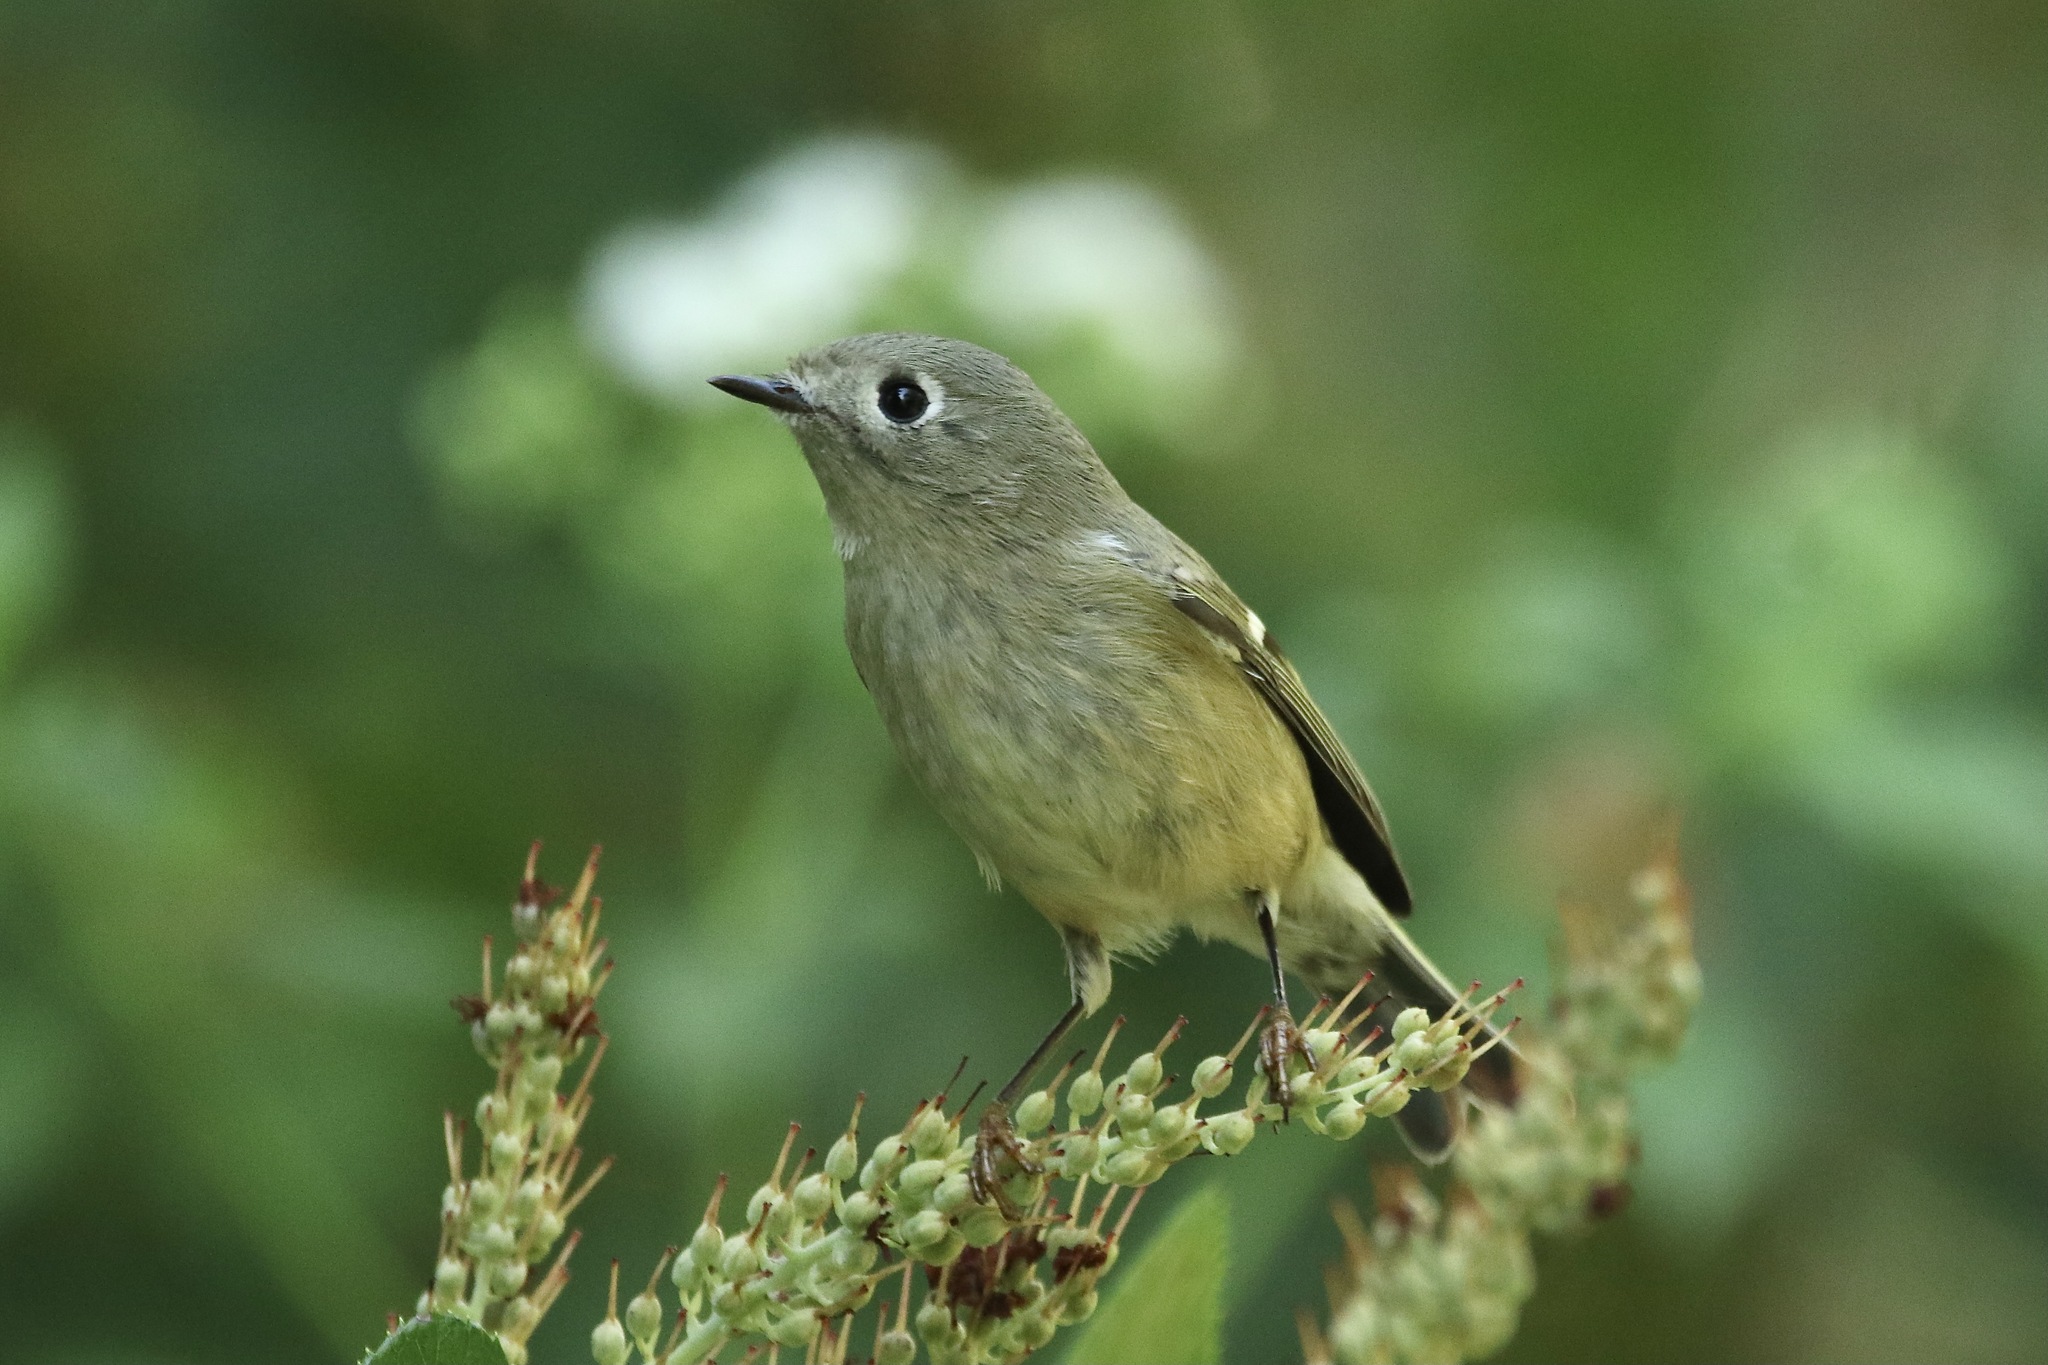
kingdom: Animalia
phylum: Chordata
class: Aves
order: Passeriformes
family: Regulidae
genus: Regulus
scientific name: Regulus calendula
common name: Ruby-crowned kinglet
